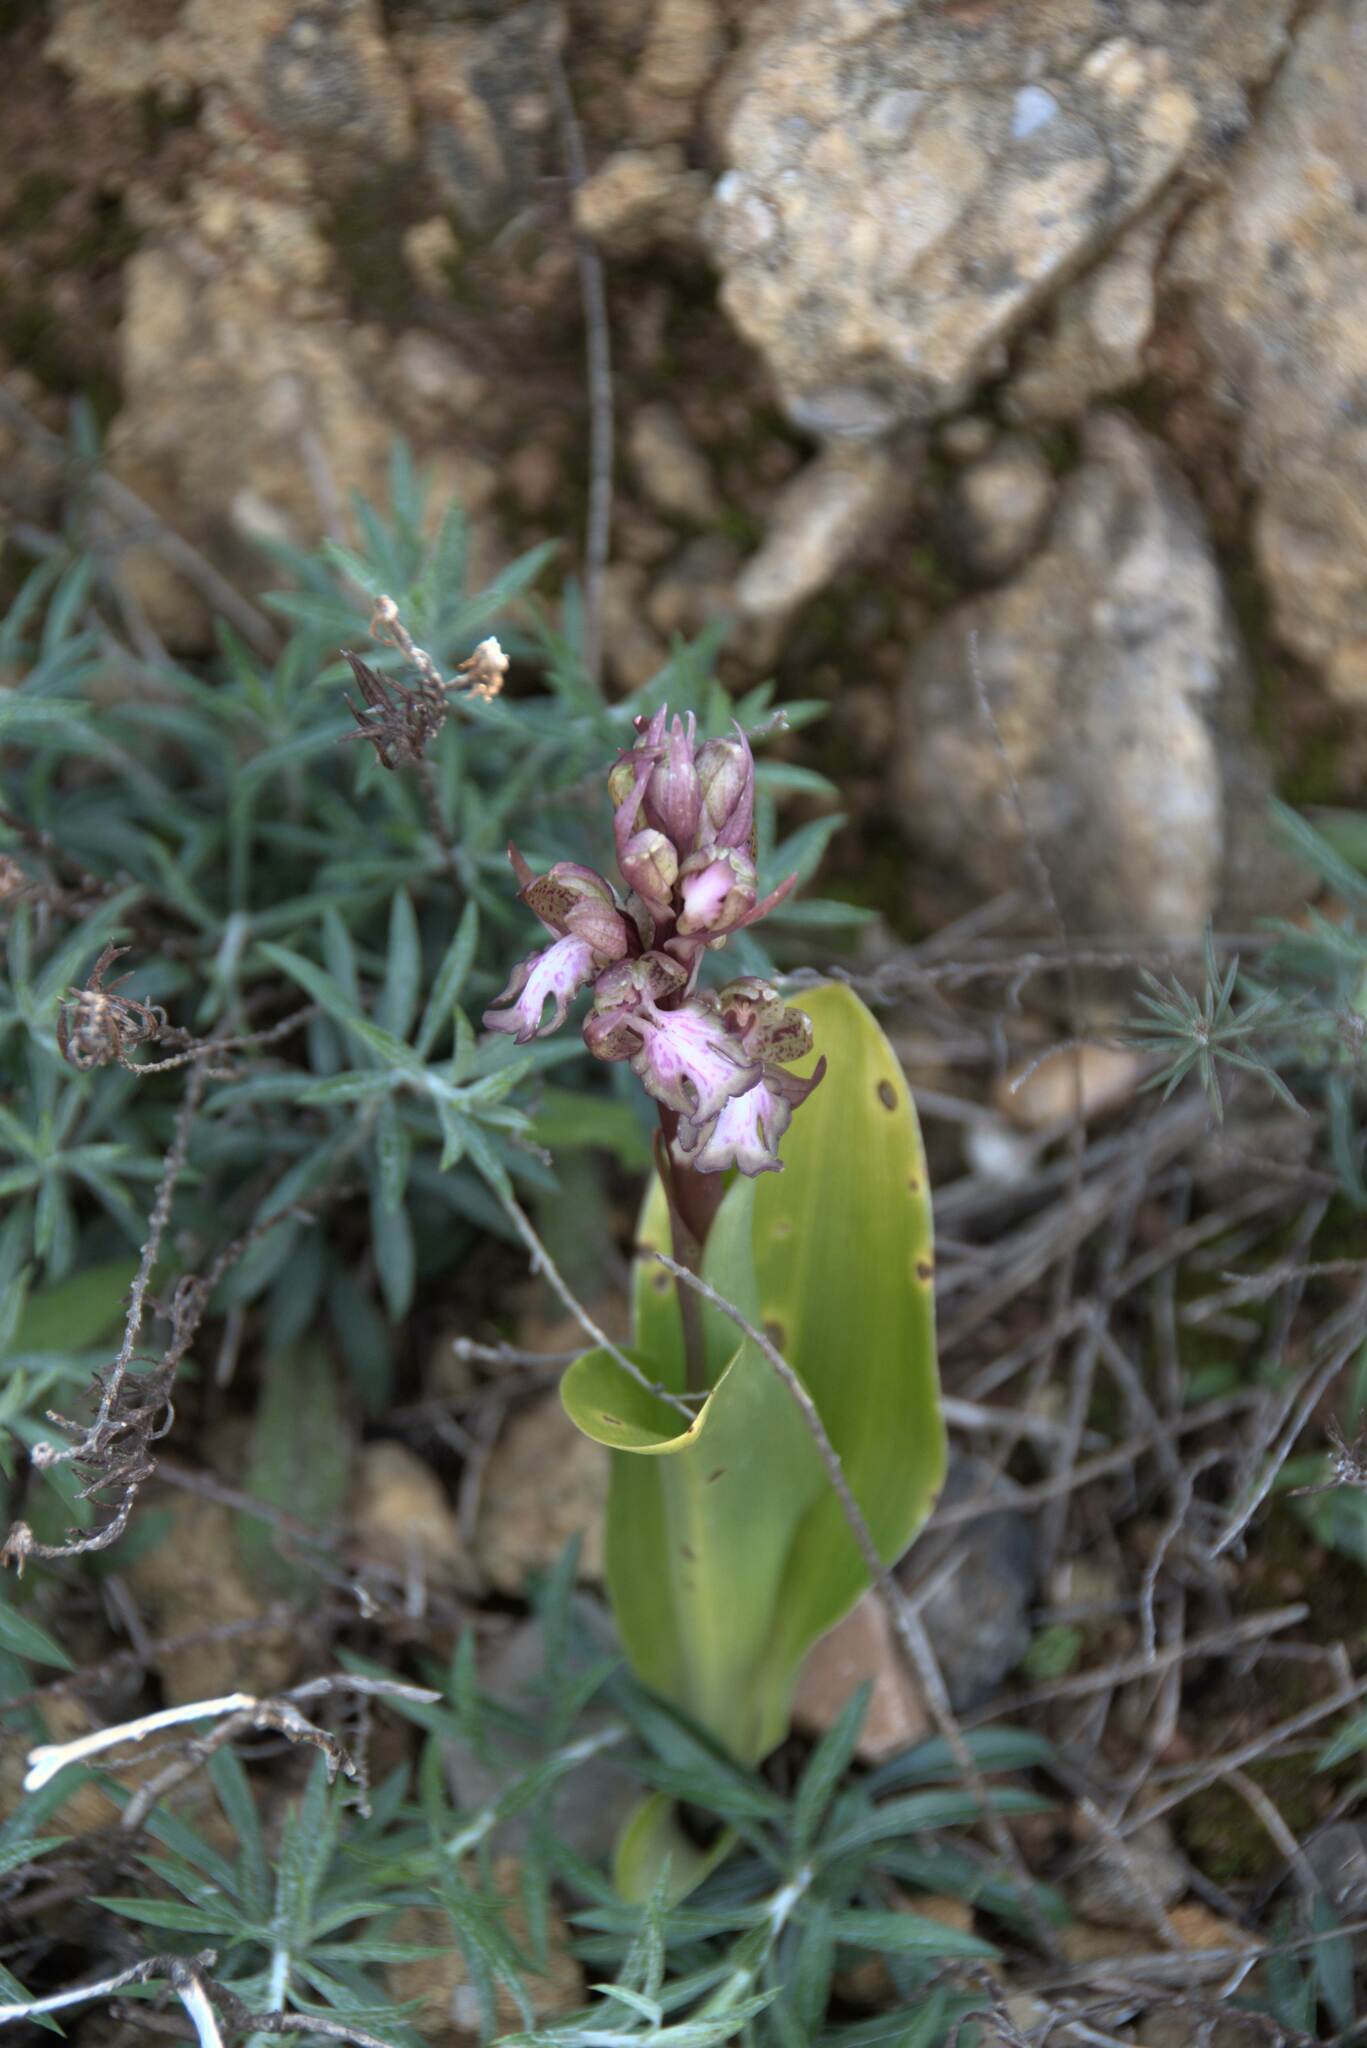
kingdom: Plantae
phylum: Tracheophyta
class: Liliopsida
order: Asparagales
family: Orchidaceae
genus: Himantoglossum
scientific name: Himantoglossum robertianum
